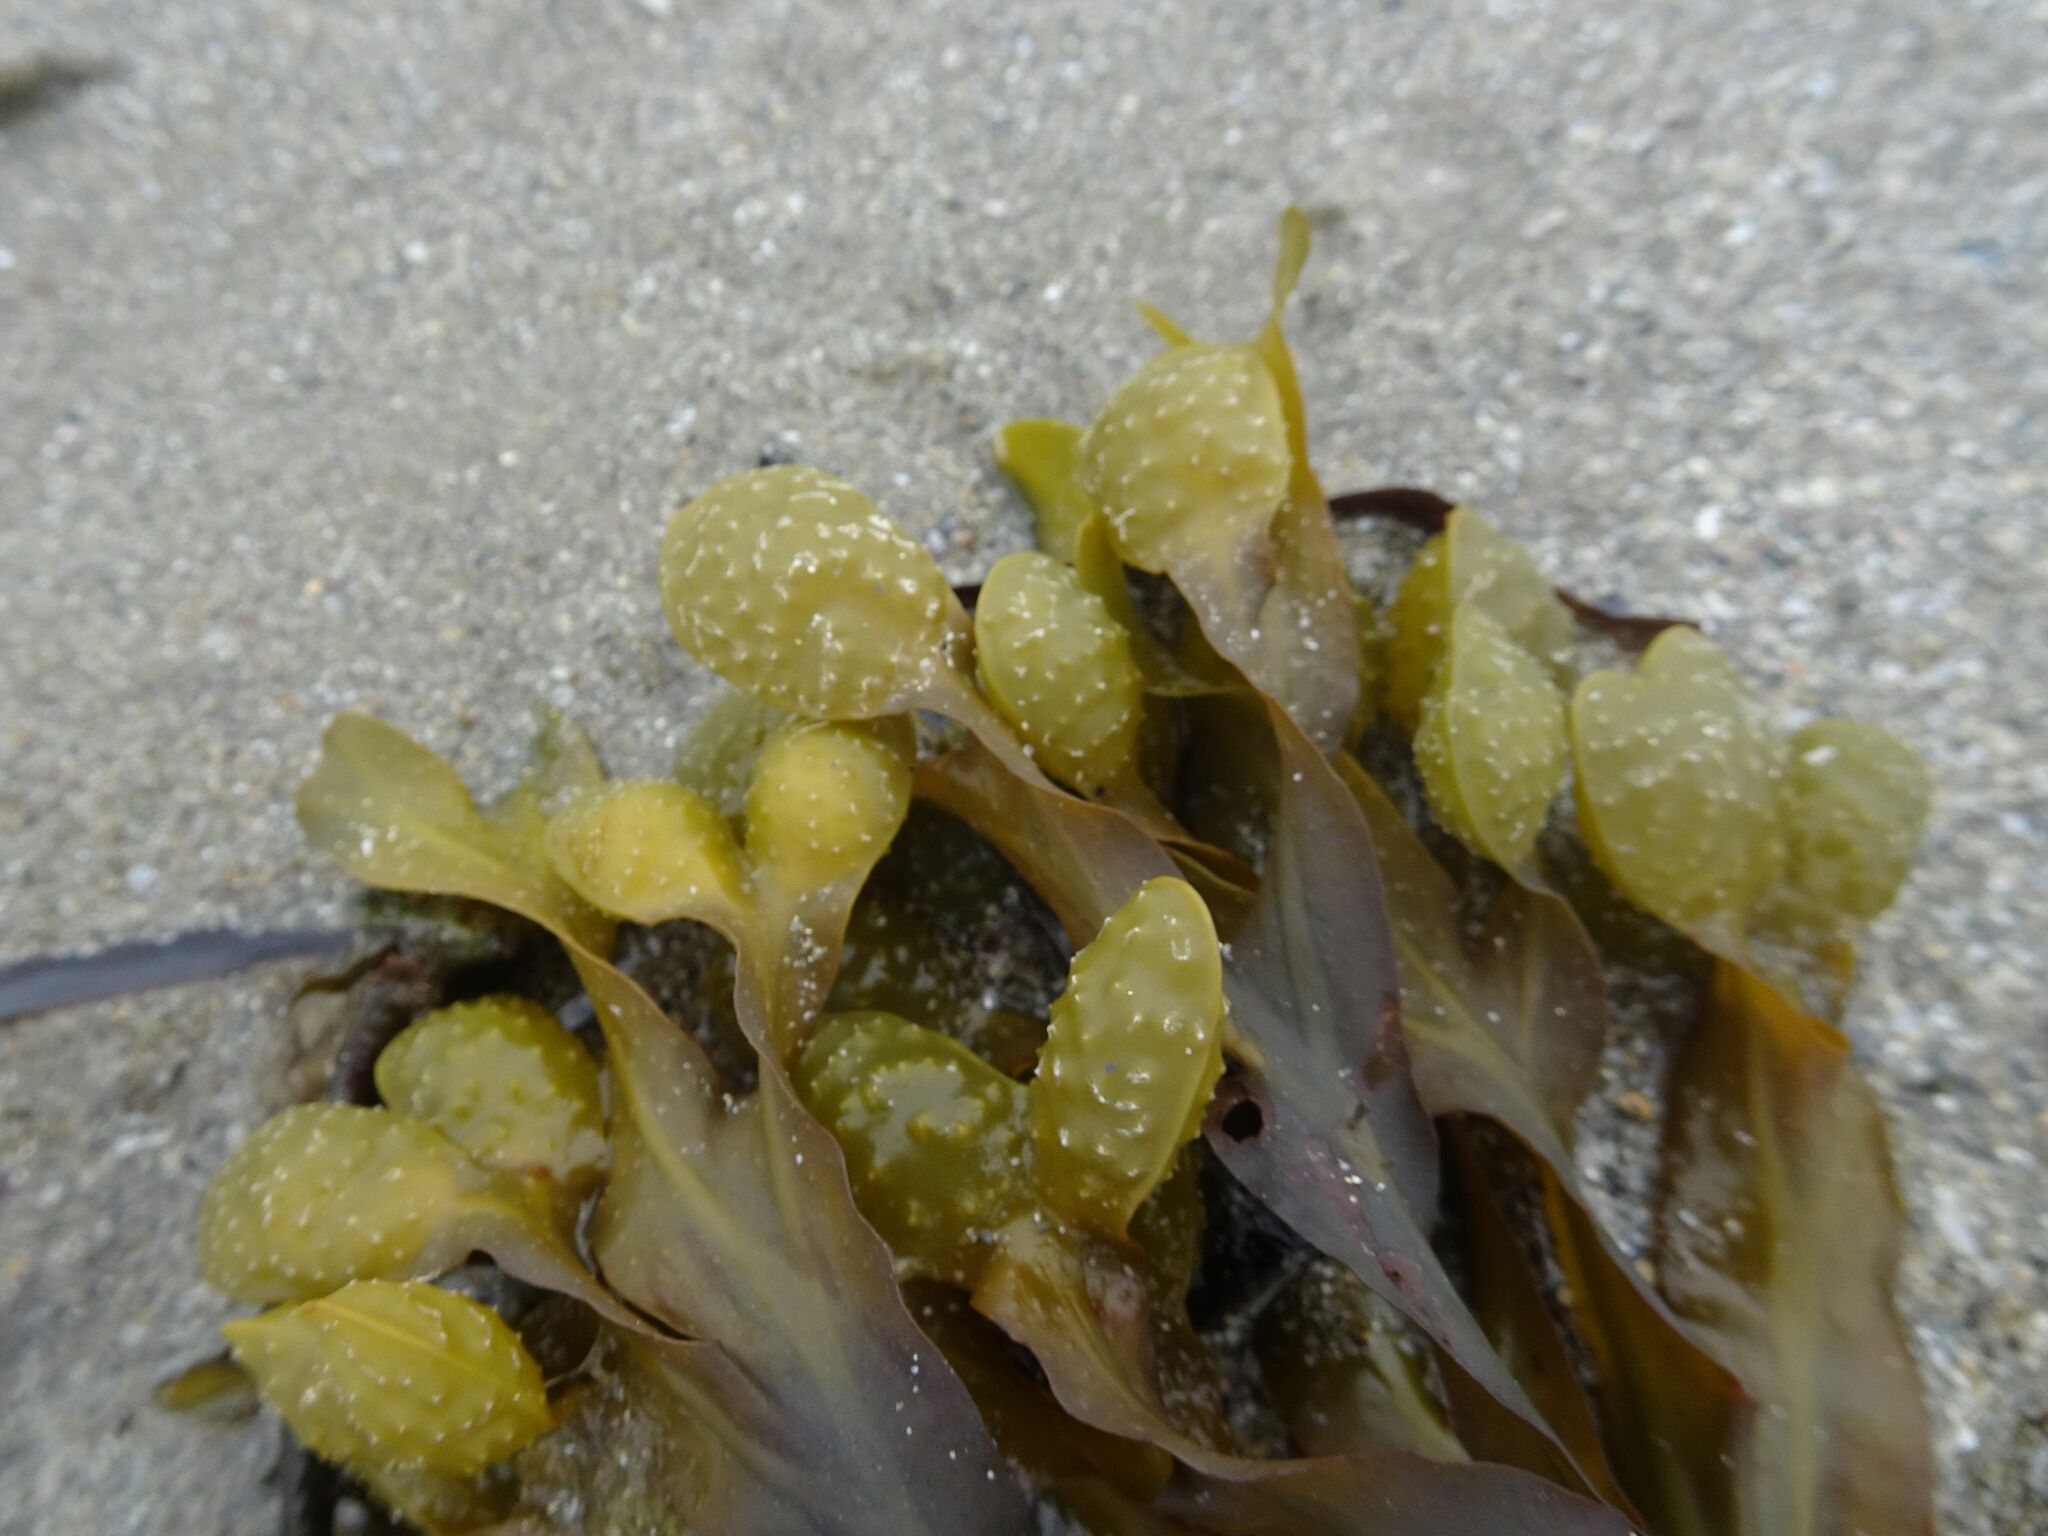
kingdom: Chromista
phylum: Ochrophyta
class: Phaeophyceae
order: Fucales
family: Fucaceae
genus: Fucus
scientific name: Fucus spiralis
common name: Spiral wrack
